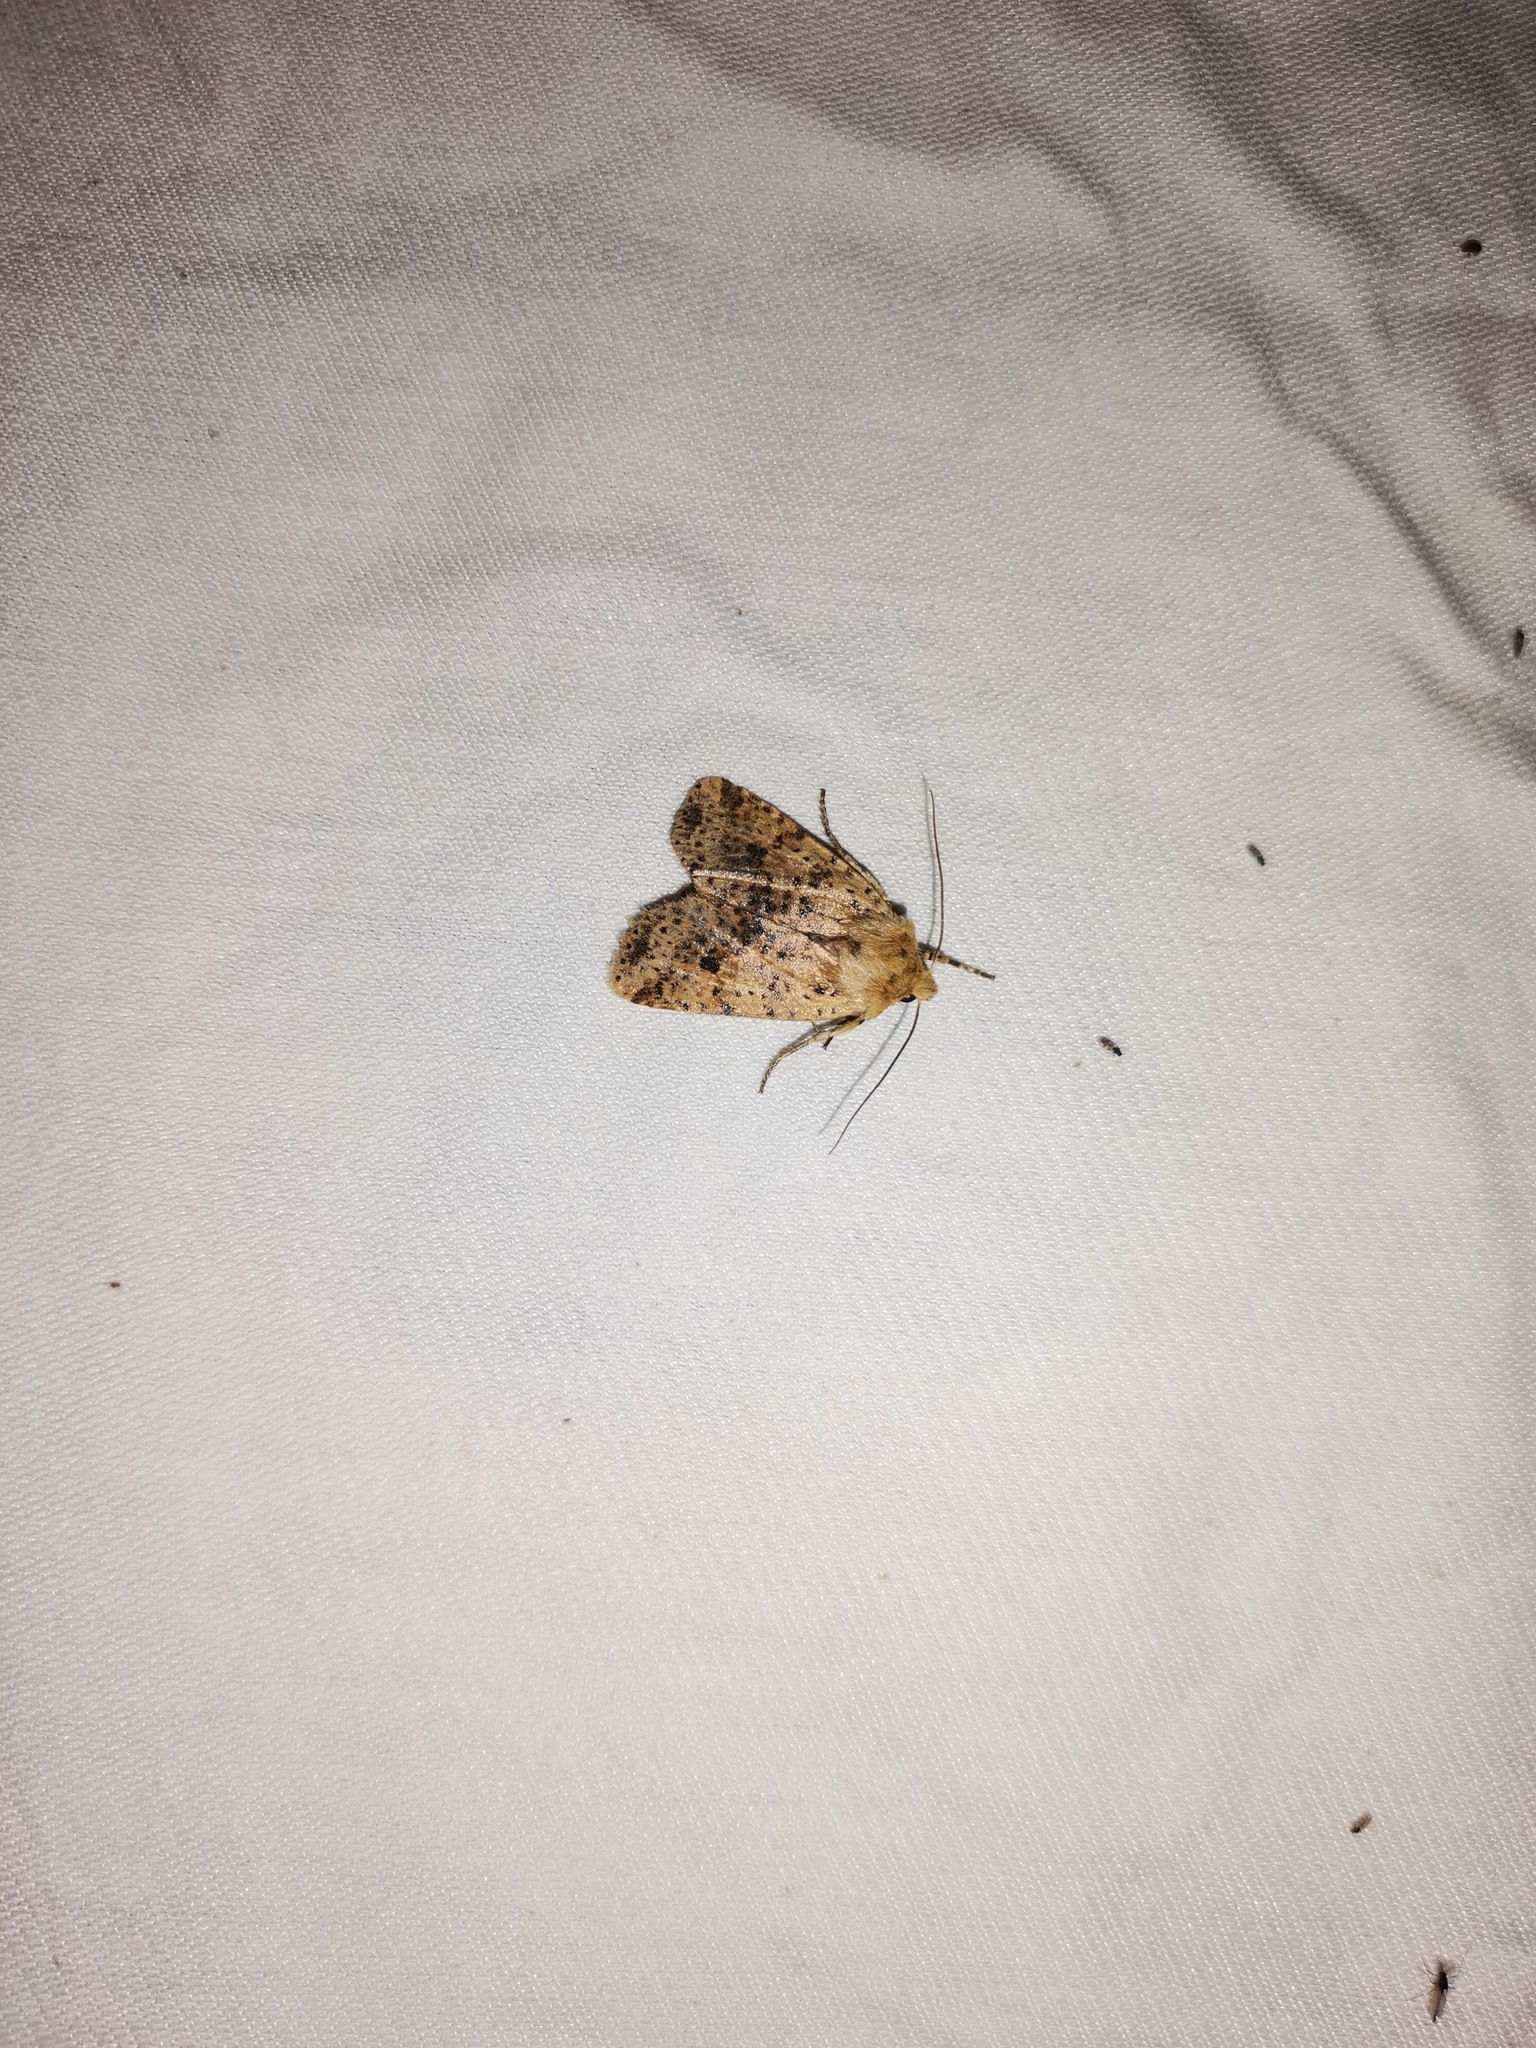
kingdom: Animalia
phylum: Arthropoda
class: Insecta
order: Lepidoptera
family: Noctuidae
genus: Conistra
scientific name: Conistra rubiginea
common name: Dotted chestnut
